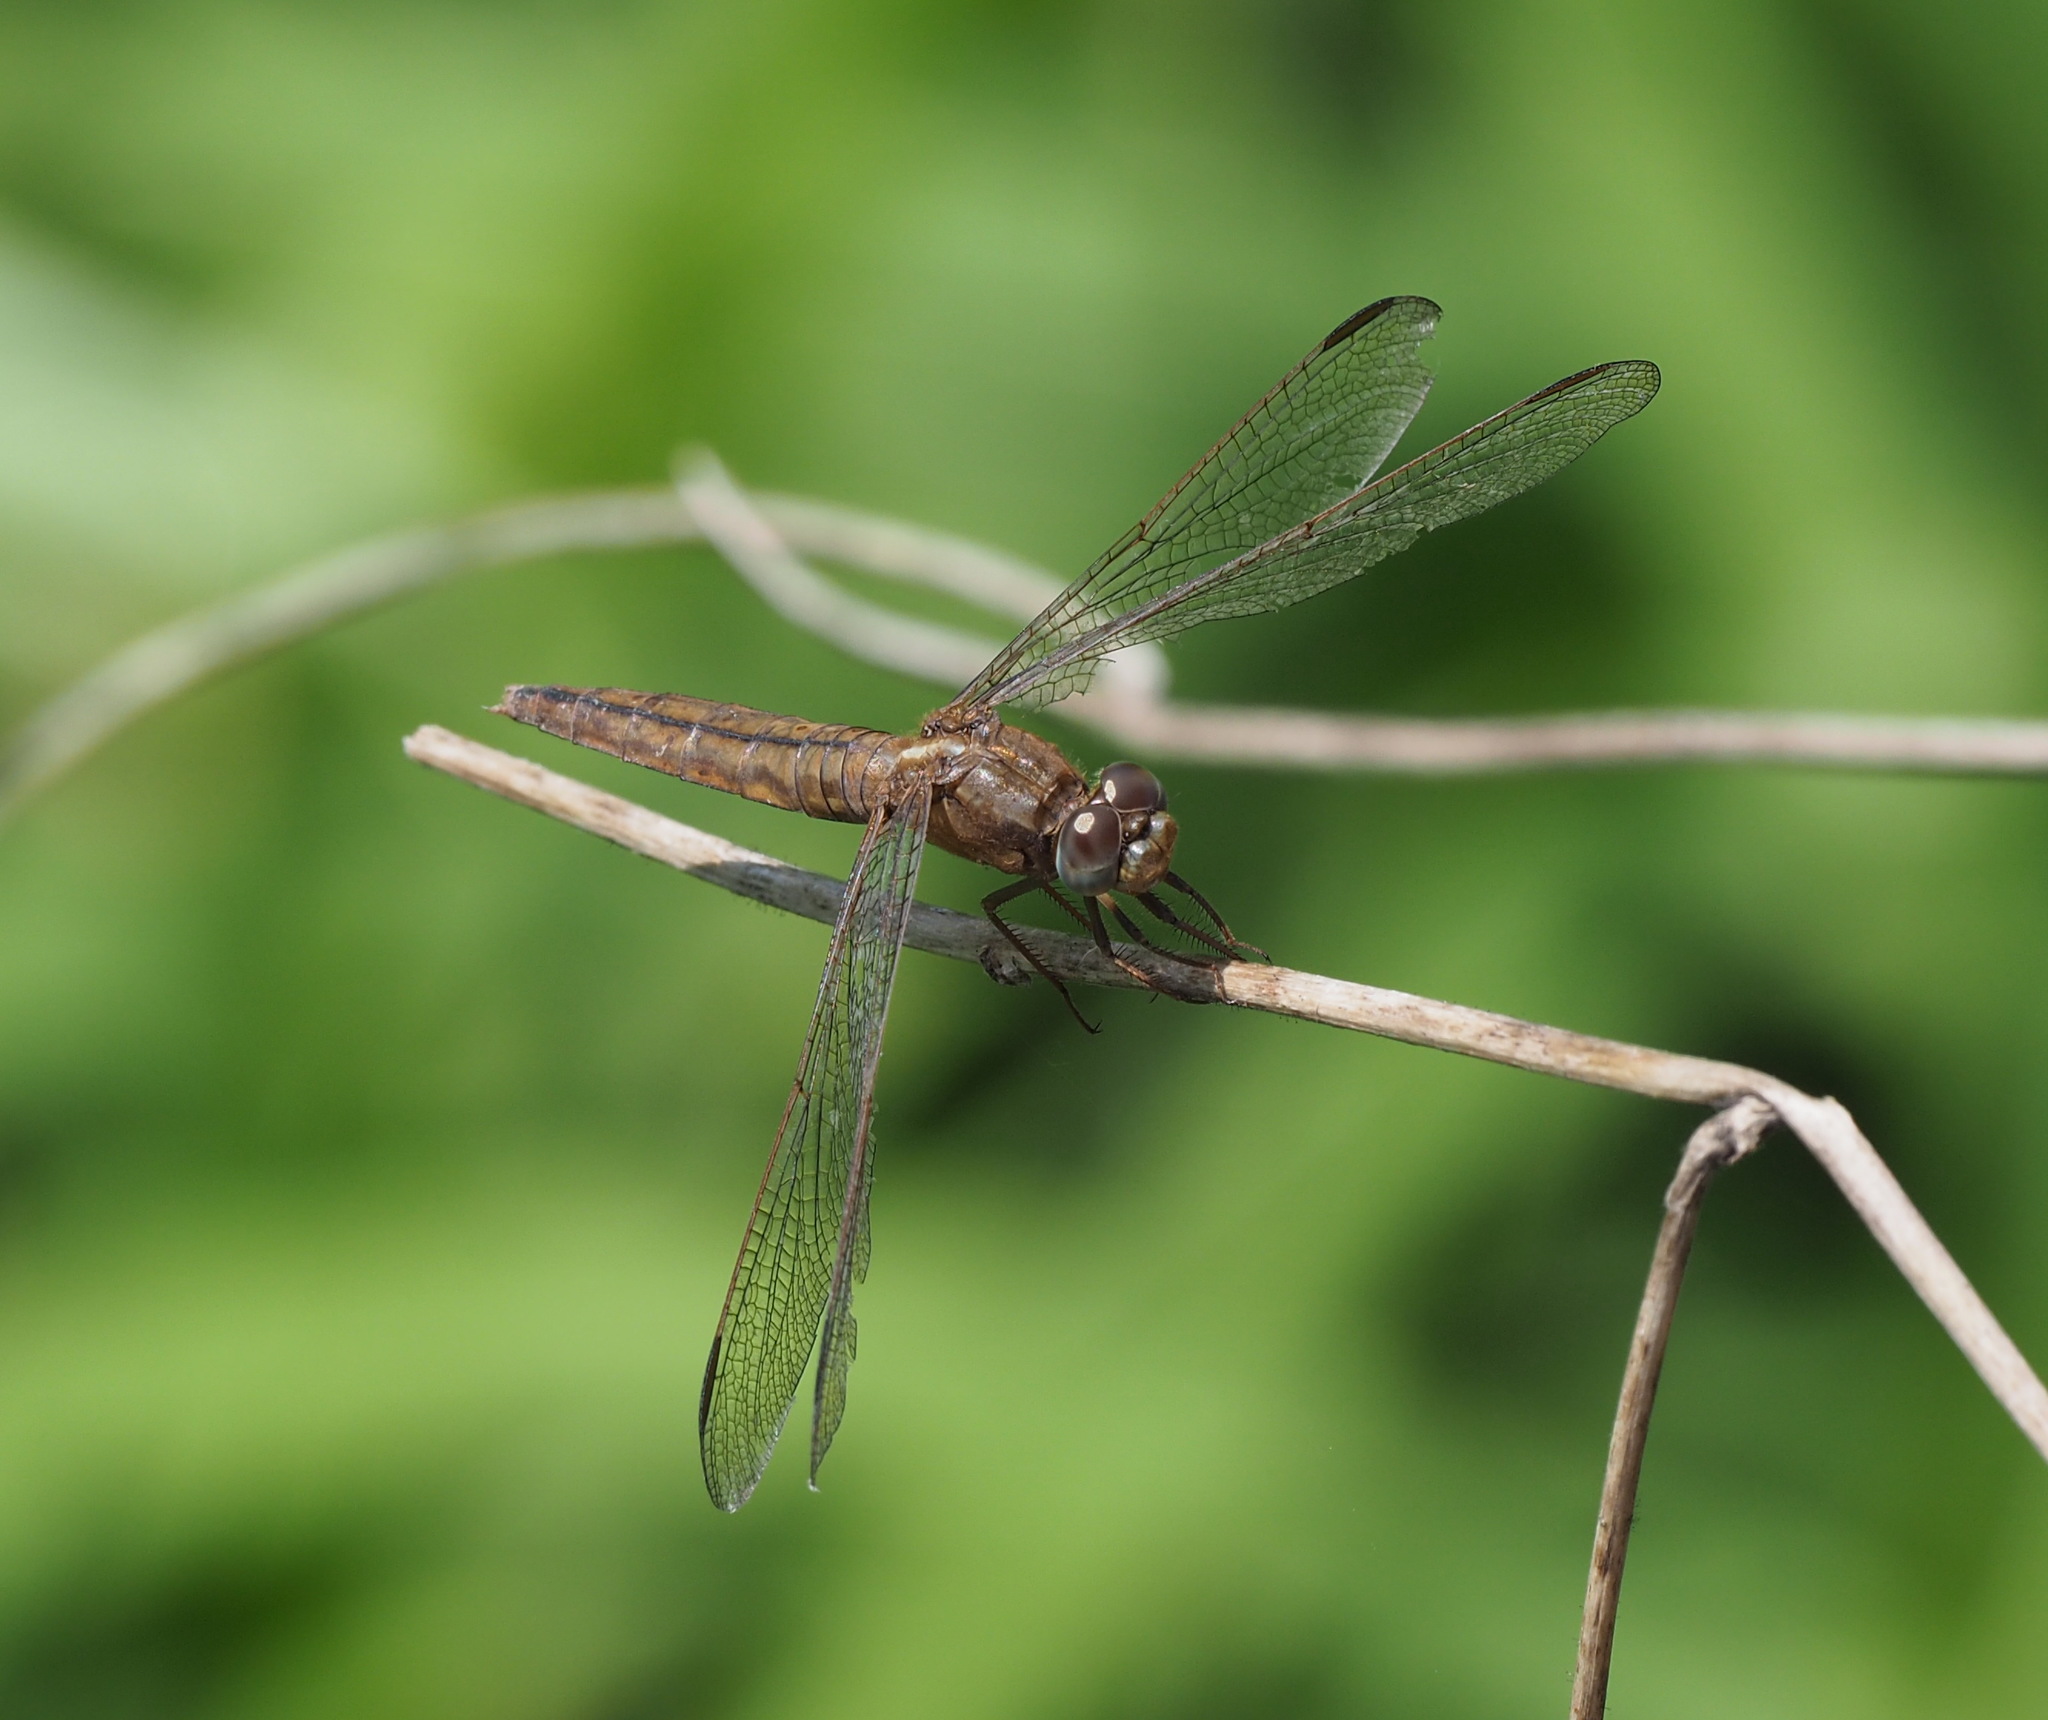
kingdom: Animalia
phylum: Arthropoda
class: Insecta
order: Odonata
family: Libellulidae
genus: Crocothemis
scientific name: Crocothemis servilia
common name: Scarlet skimmer
